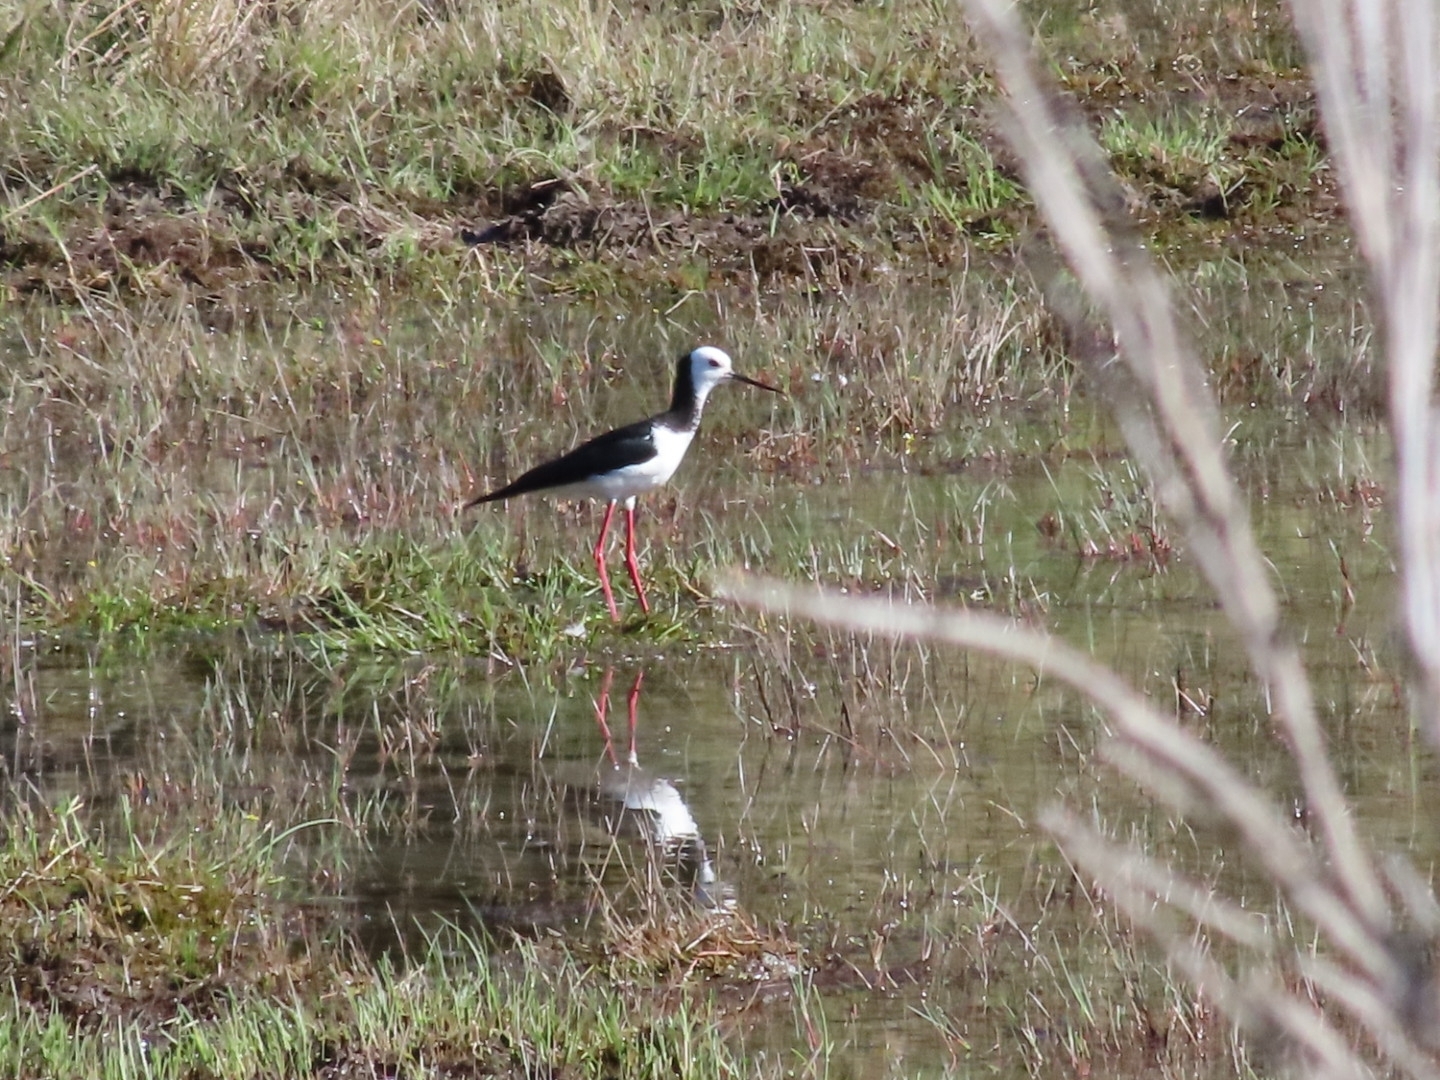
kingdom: Animalia
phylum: Chordata
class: Aves
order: Charadriiformes
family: Recurvirostridae
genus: Himantopus
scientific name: Himantopus leucocephalus
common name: White-headed stilt
